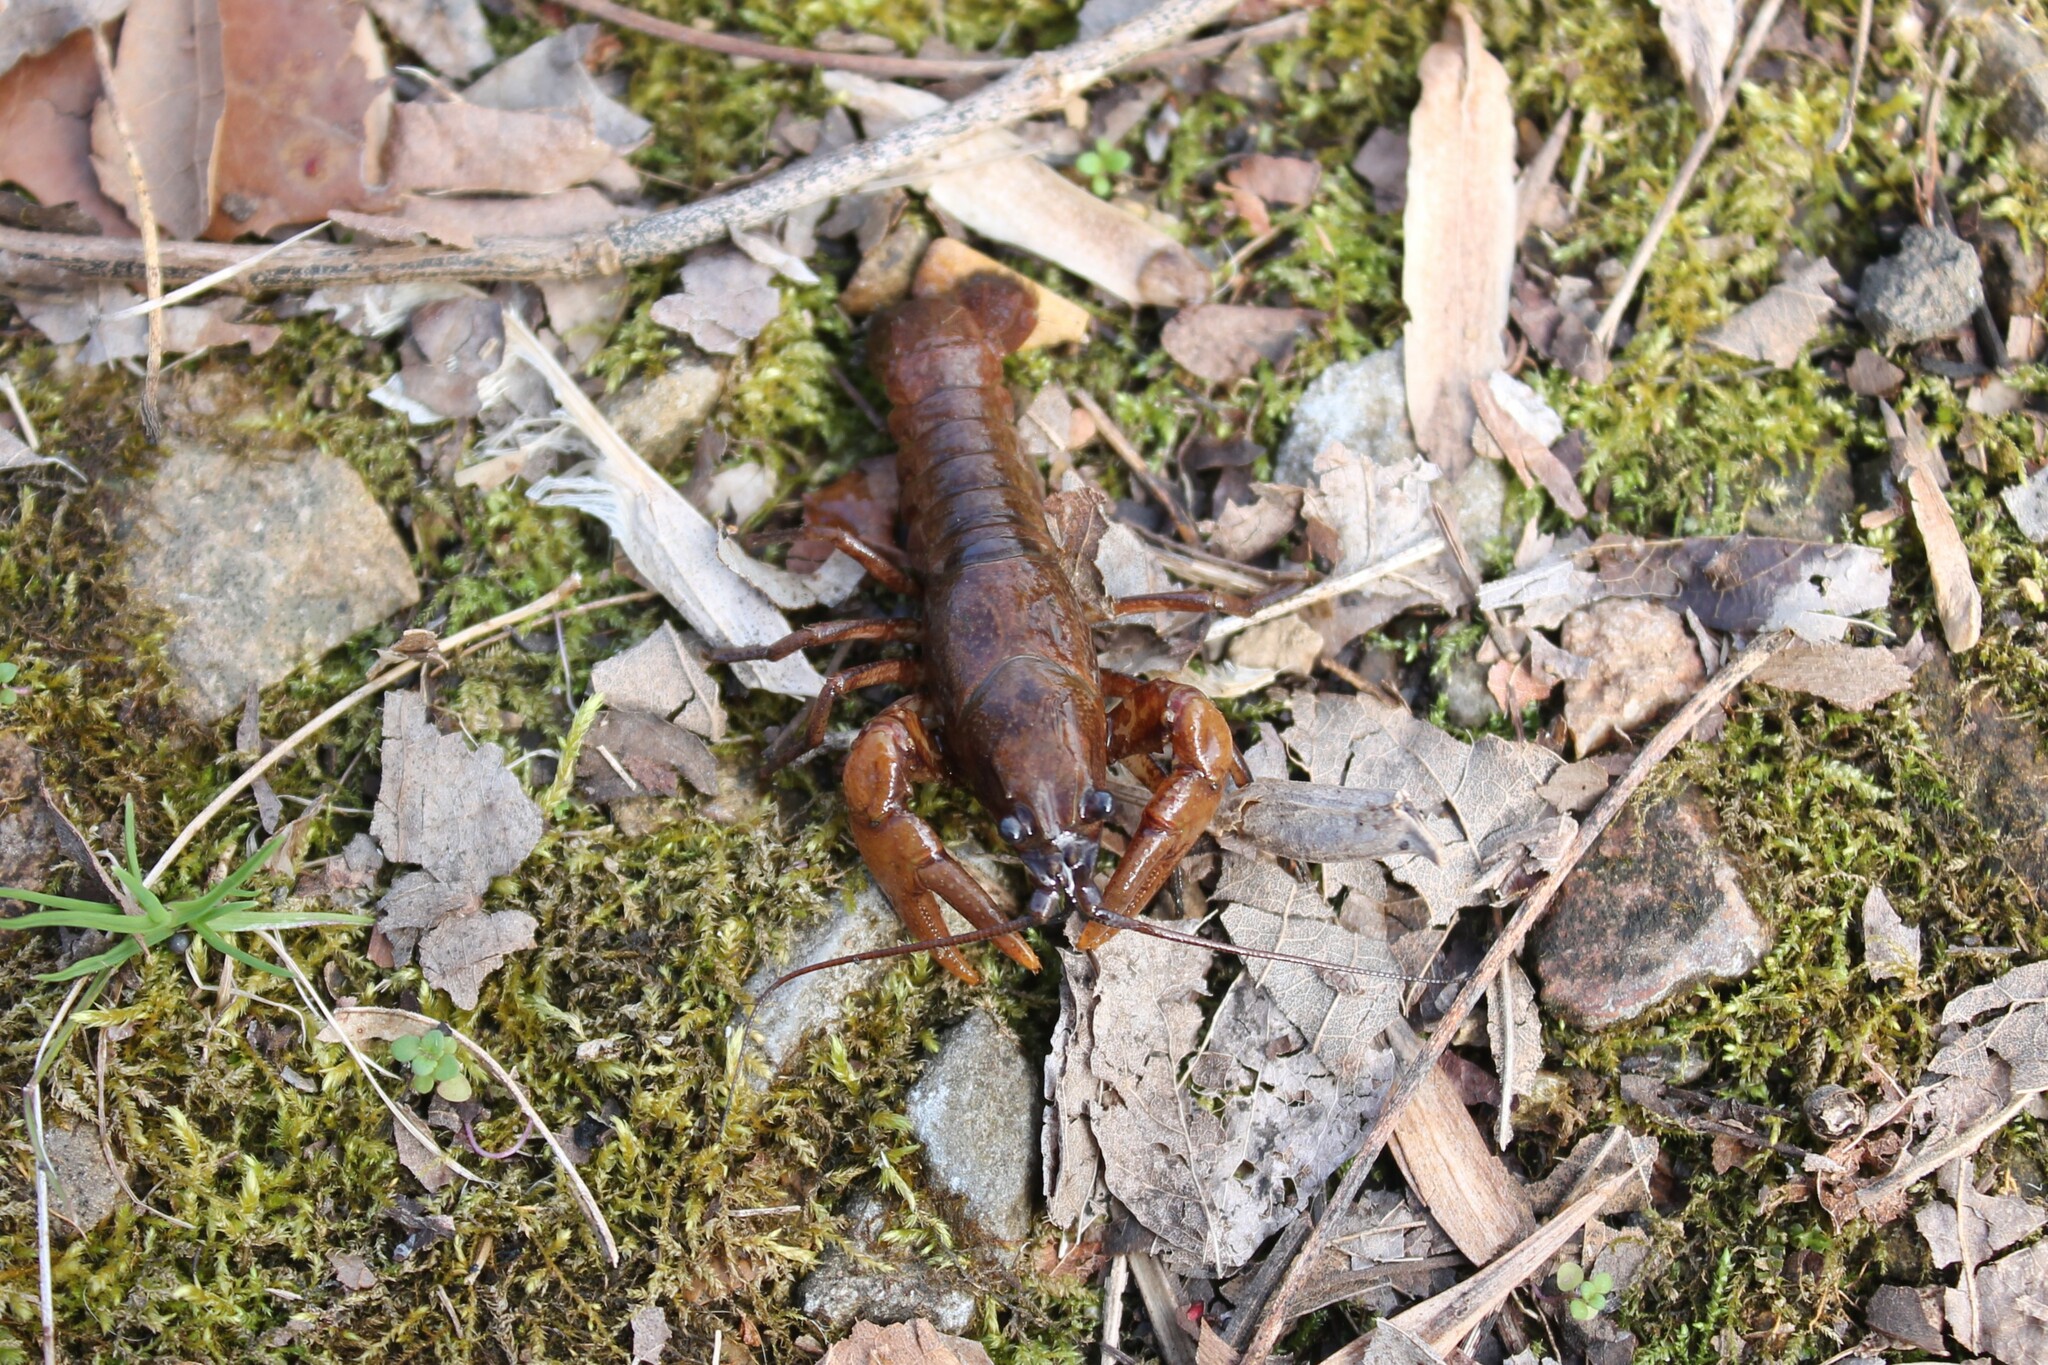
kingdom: Animalia
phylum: Arthropoda
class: Malacostraca
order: Decapoda
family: Cambaridae
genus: Faxonius
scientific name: Faxonius compressus
